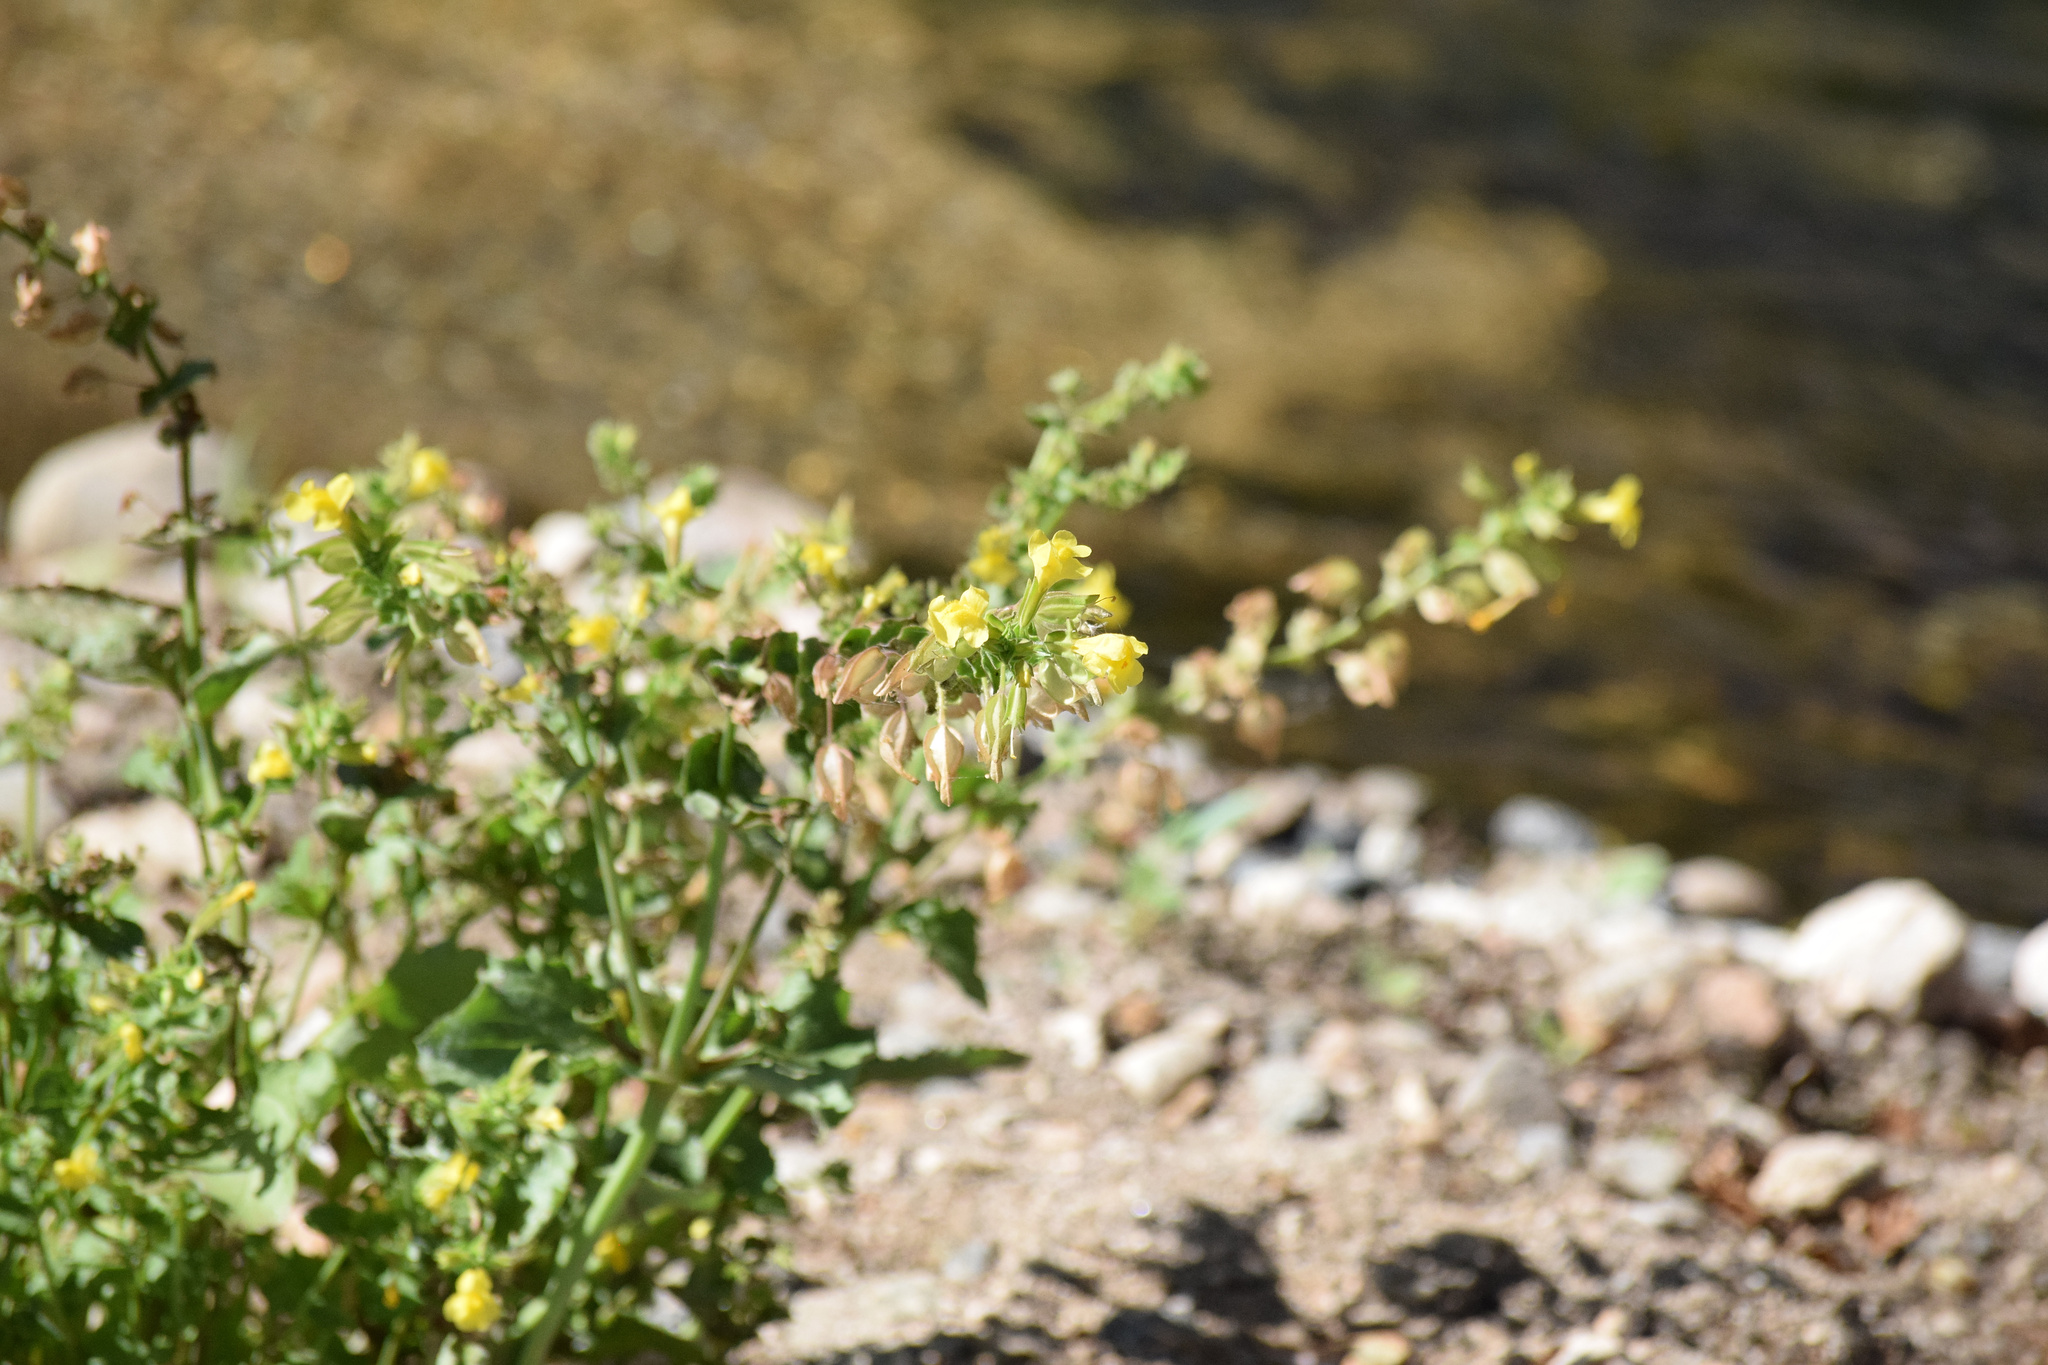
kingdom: Plantae
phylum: Tracheophyta
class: Magnoliopsida
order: Lamiales
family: Phrymaceae
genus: Erythranthe
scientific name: Erythranthe guttata
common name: Monkeyflower
